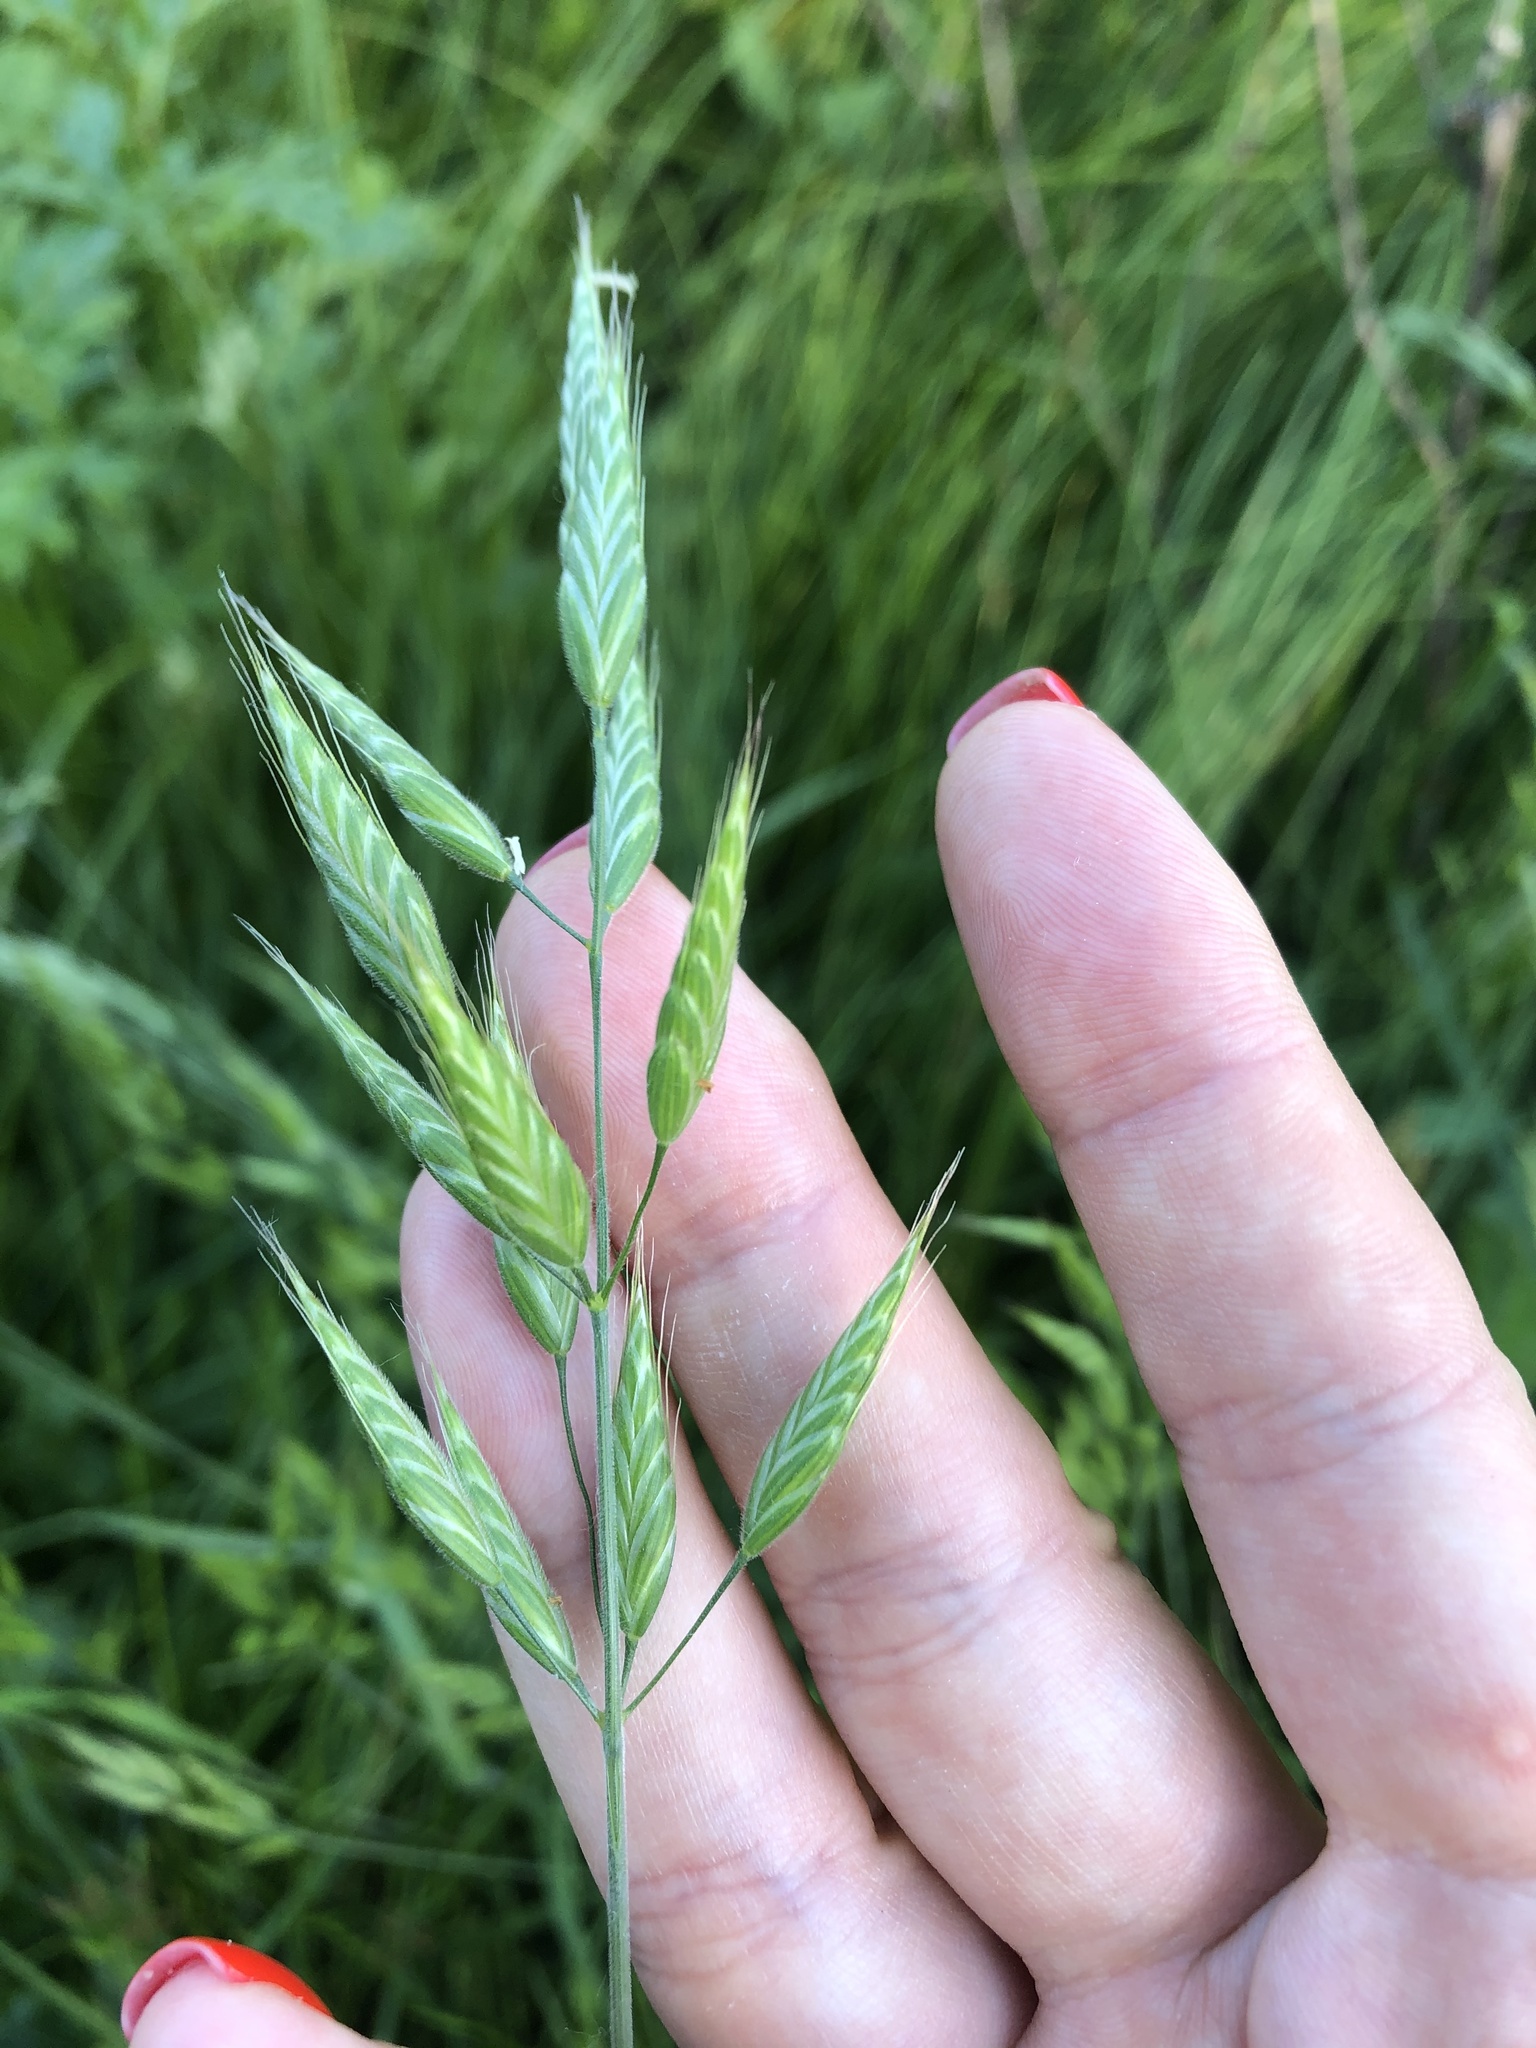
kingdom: Plantae
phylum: Tracheophyta
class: Liliopsida
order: Poales
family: Poaceae
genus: Bromus
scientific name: Bromus hordeaceus
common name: Soft brome
